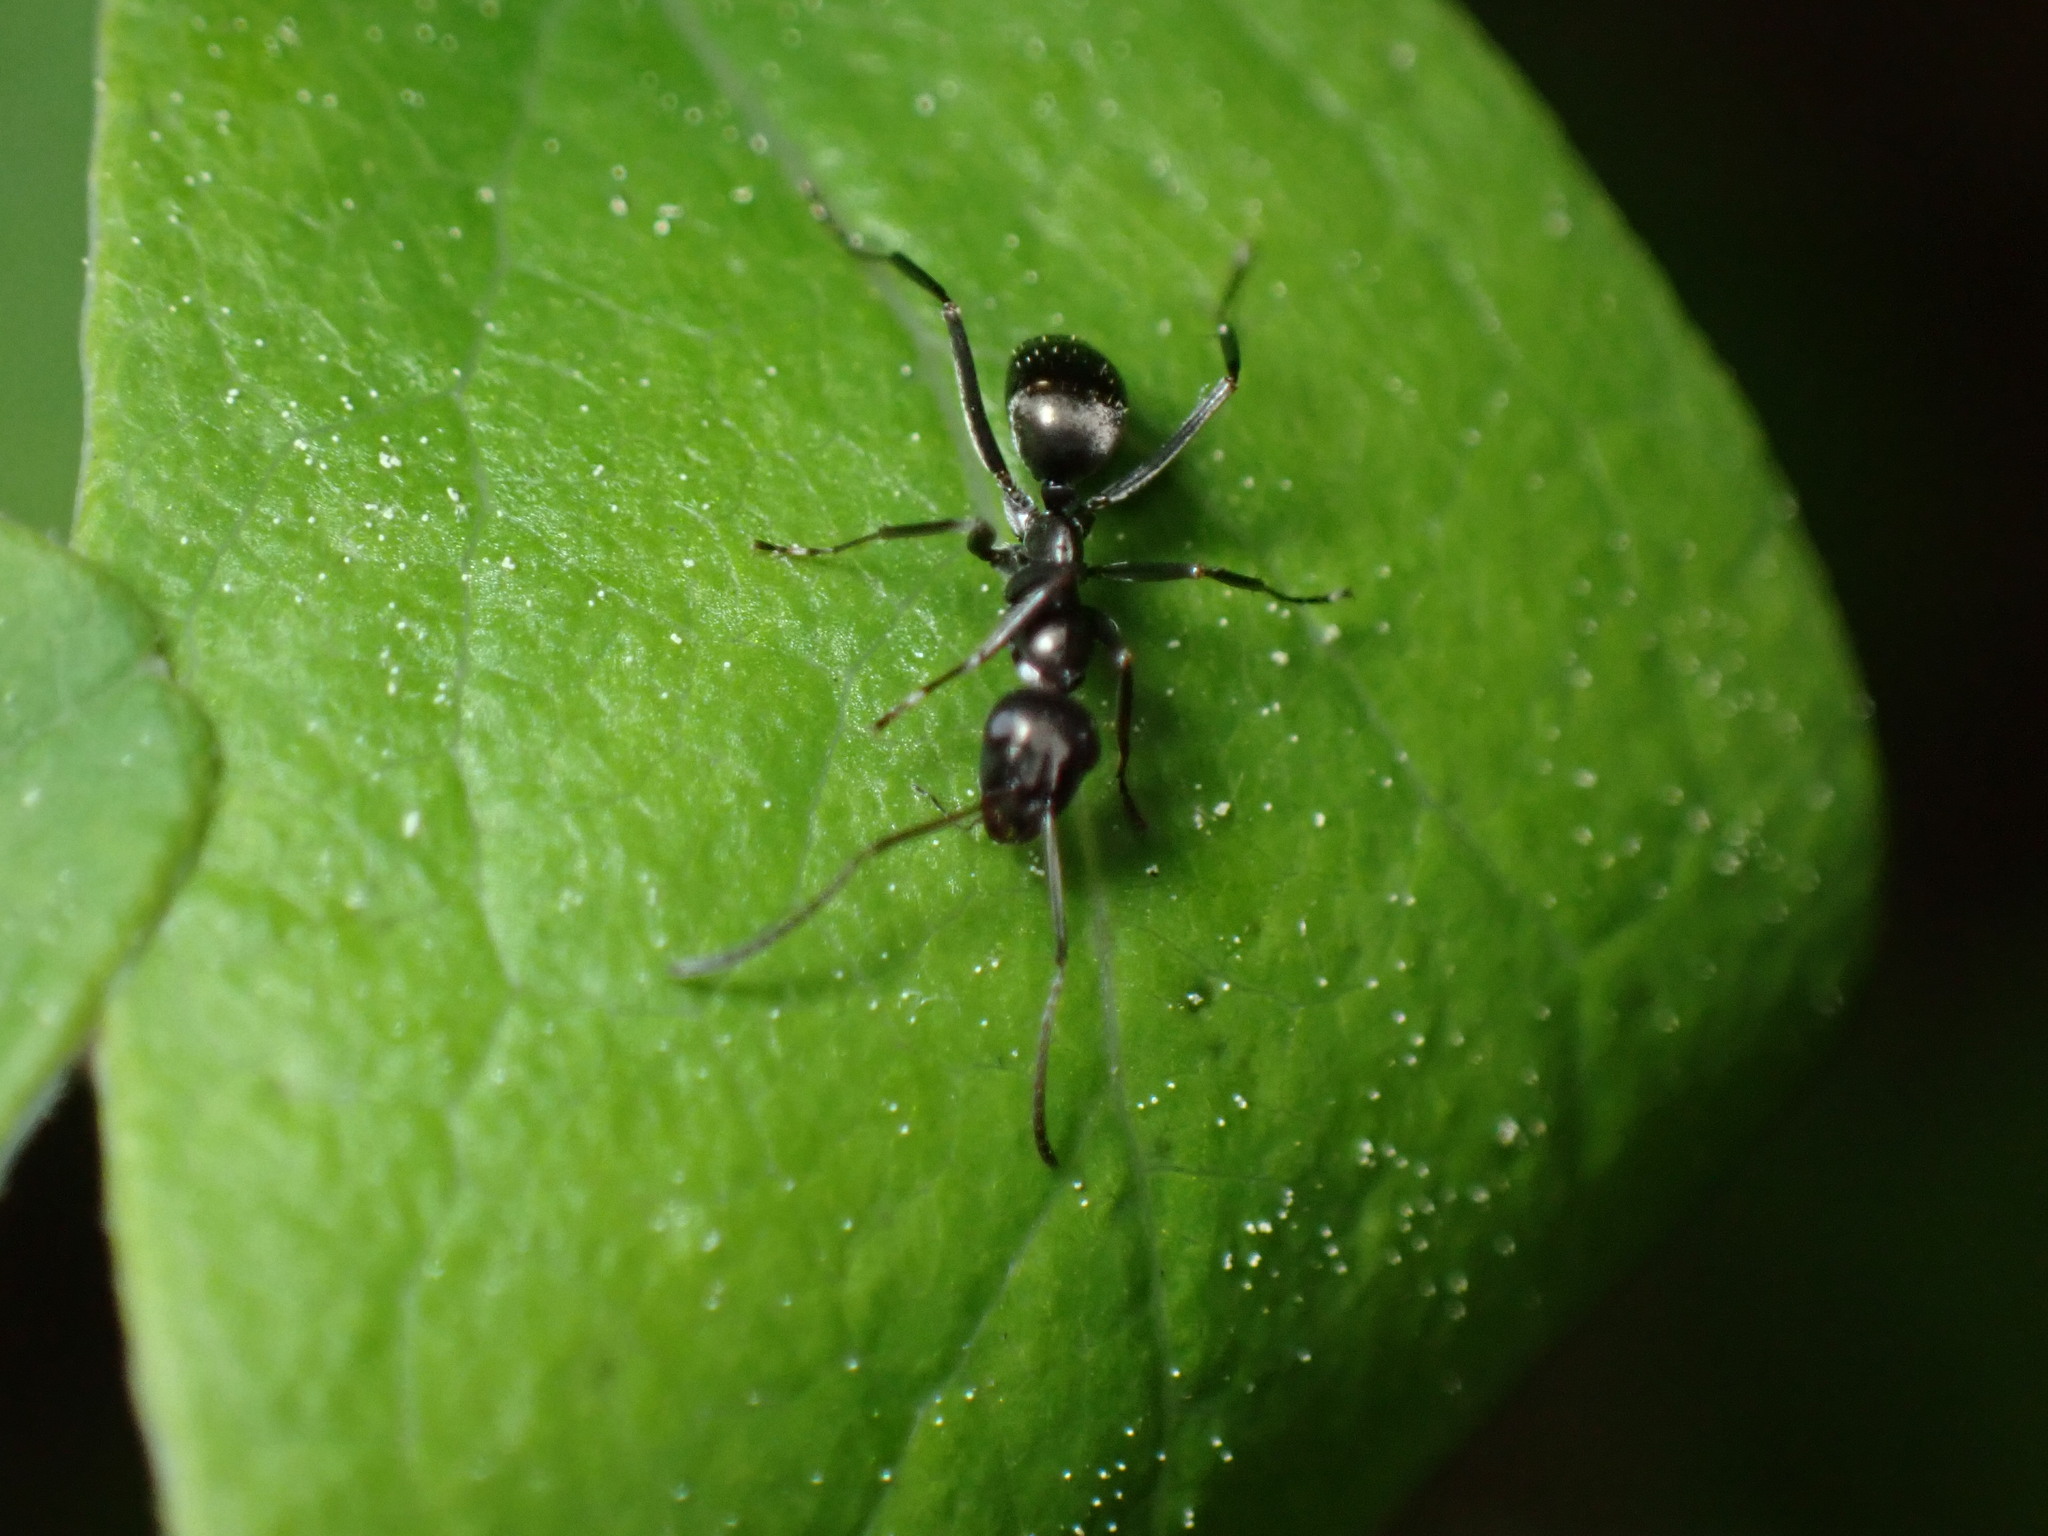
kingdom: Animalia
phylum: Arthropoda
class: Insecta
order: Hymenoptera
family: Formicidae
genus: Formica
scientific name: Formica subsericea
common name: Silky field ant
